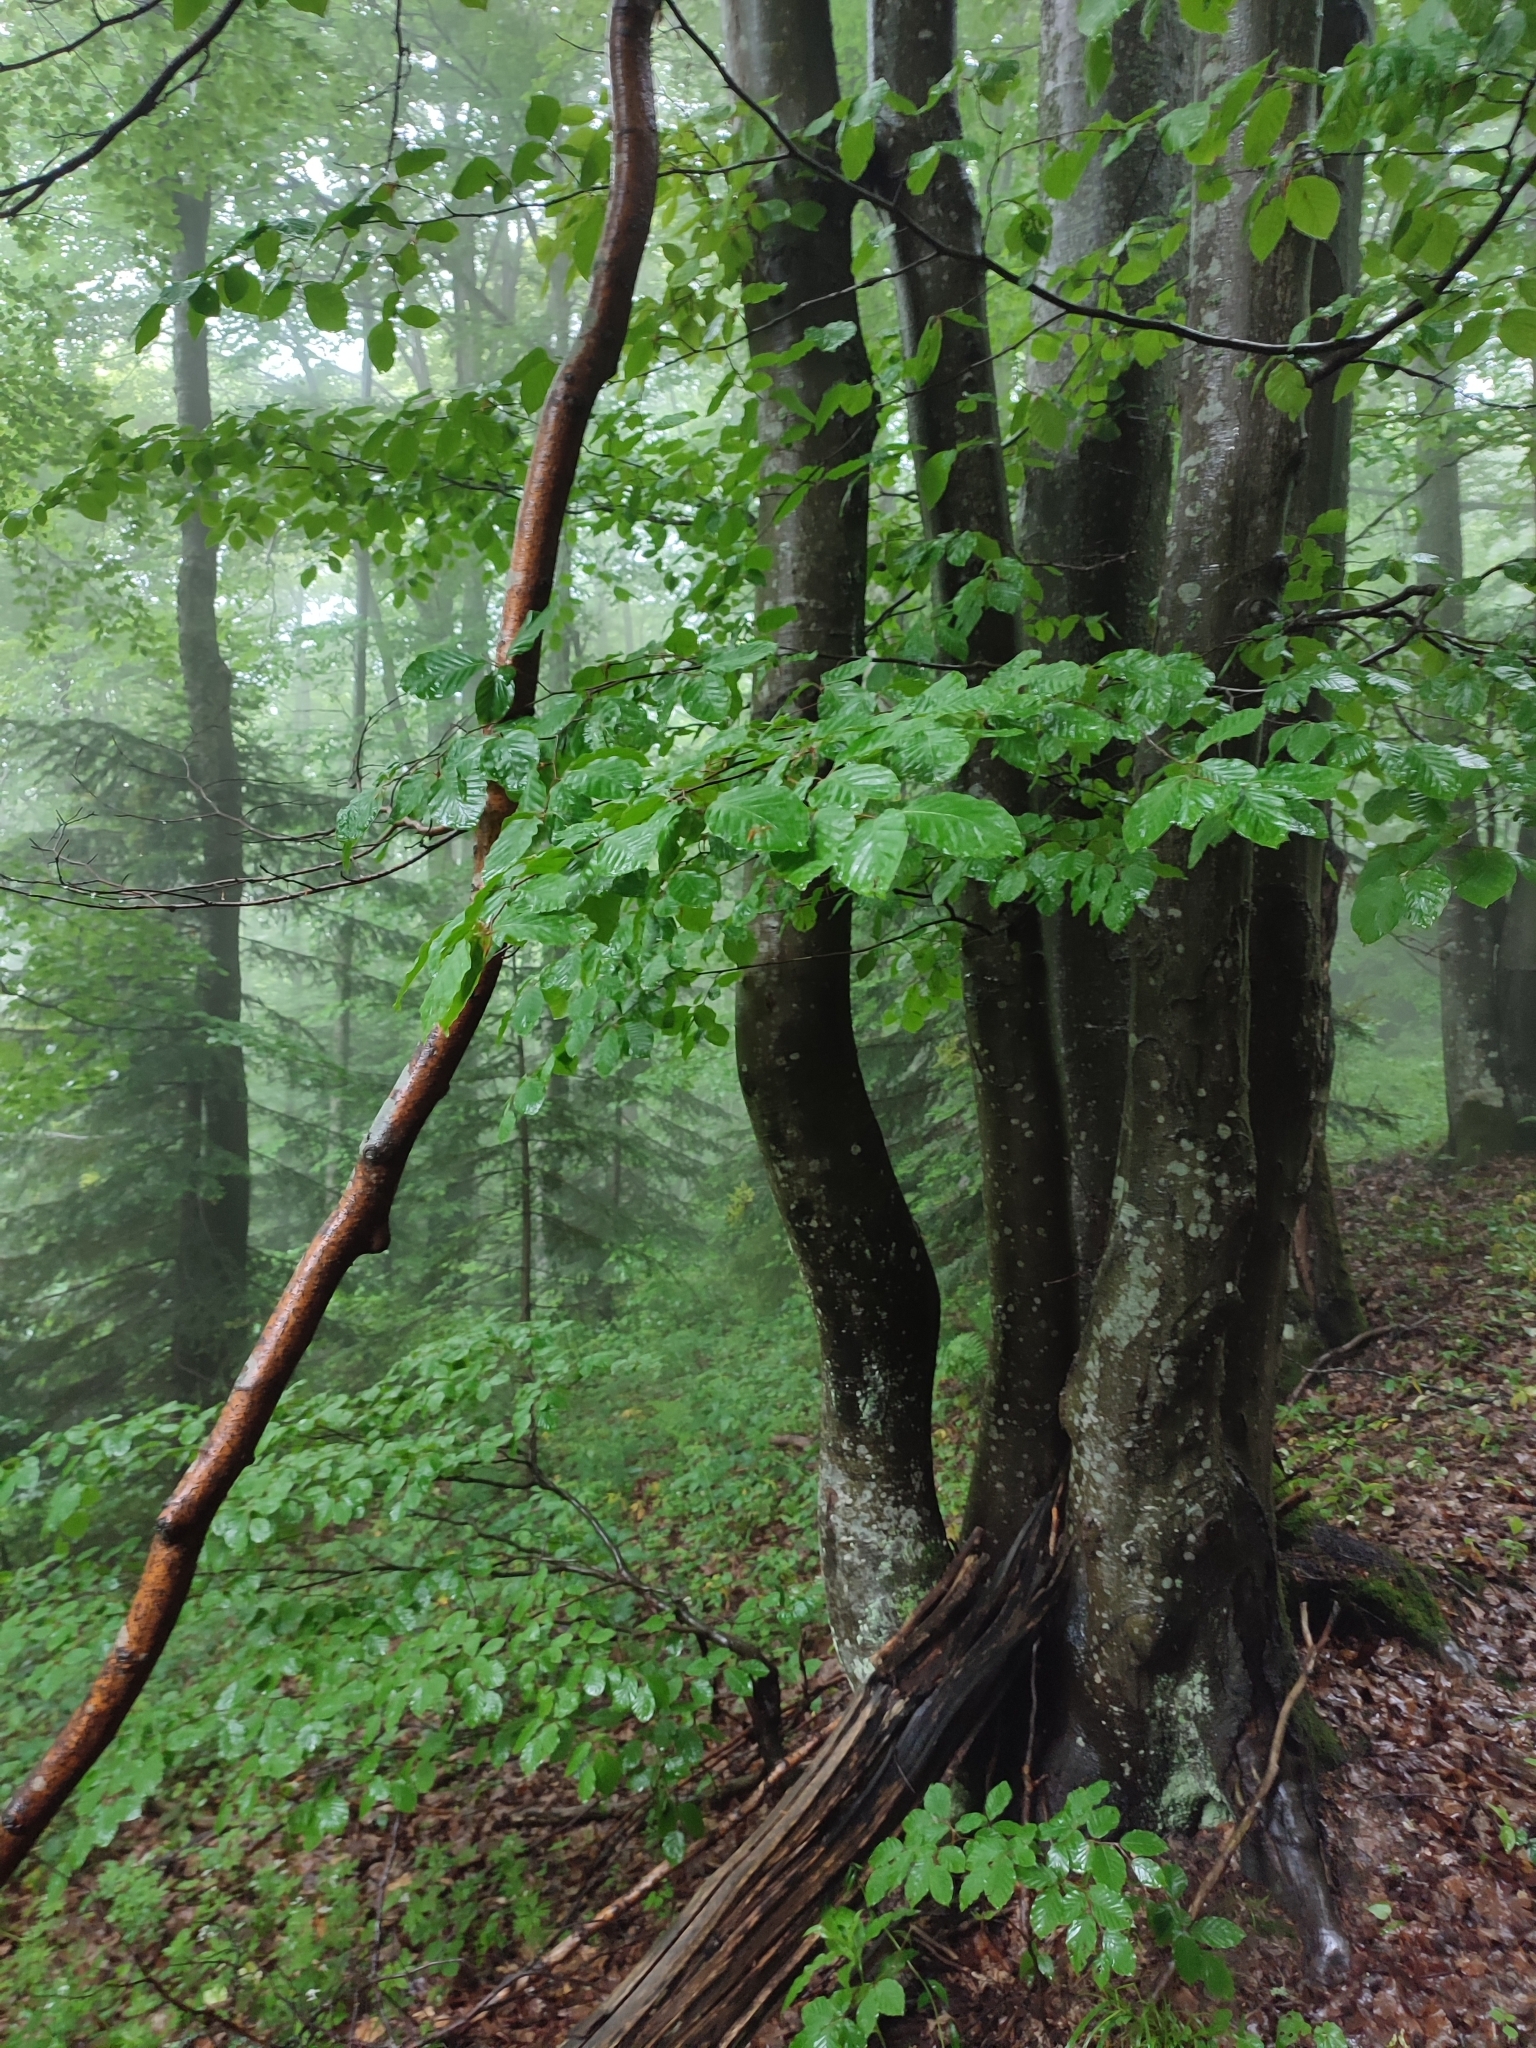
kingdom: Plantae
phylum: Tracheophyta
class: Magnoliopsida
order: Fagales
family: Fagaceae
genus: Fagus
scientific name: Fagus sylvatica
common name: Beech
